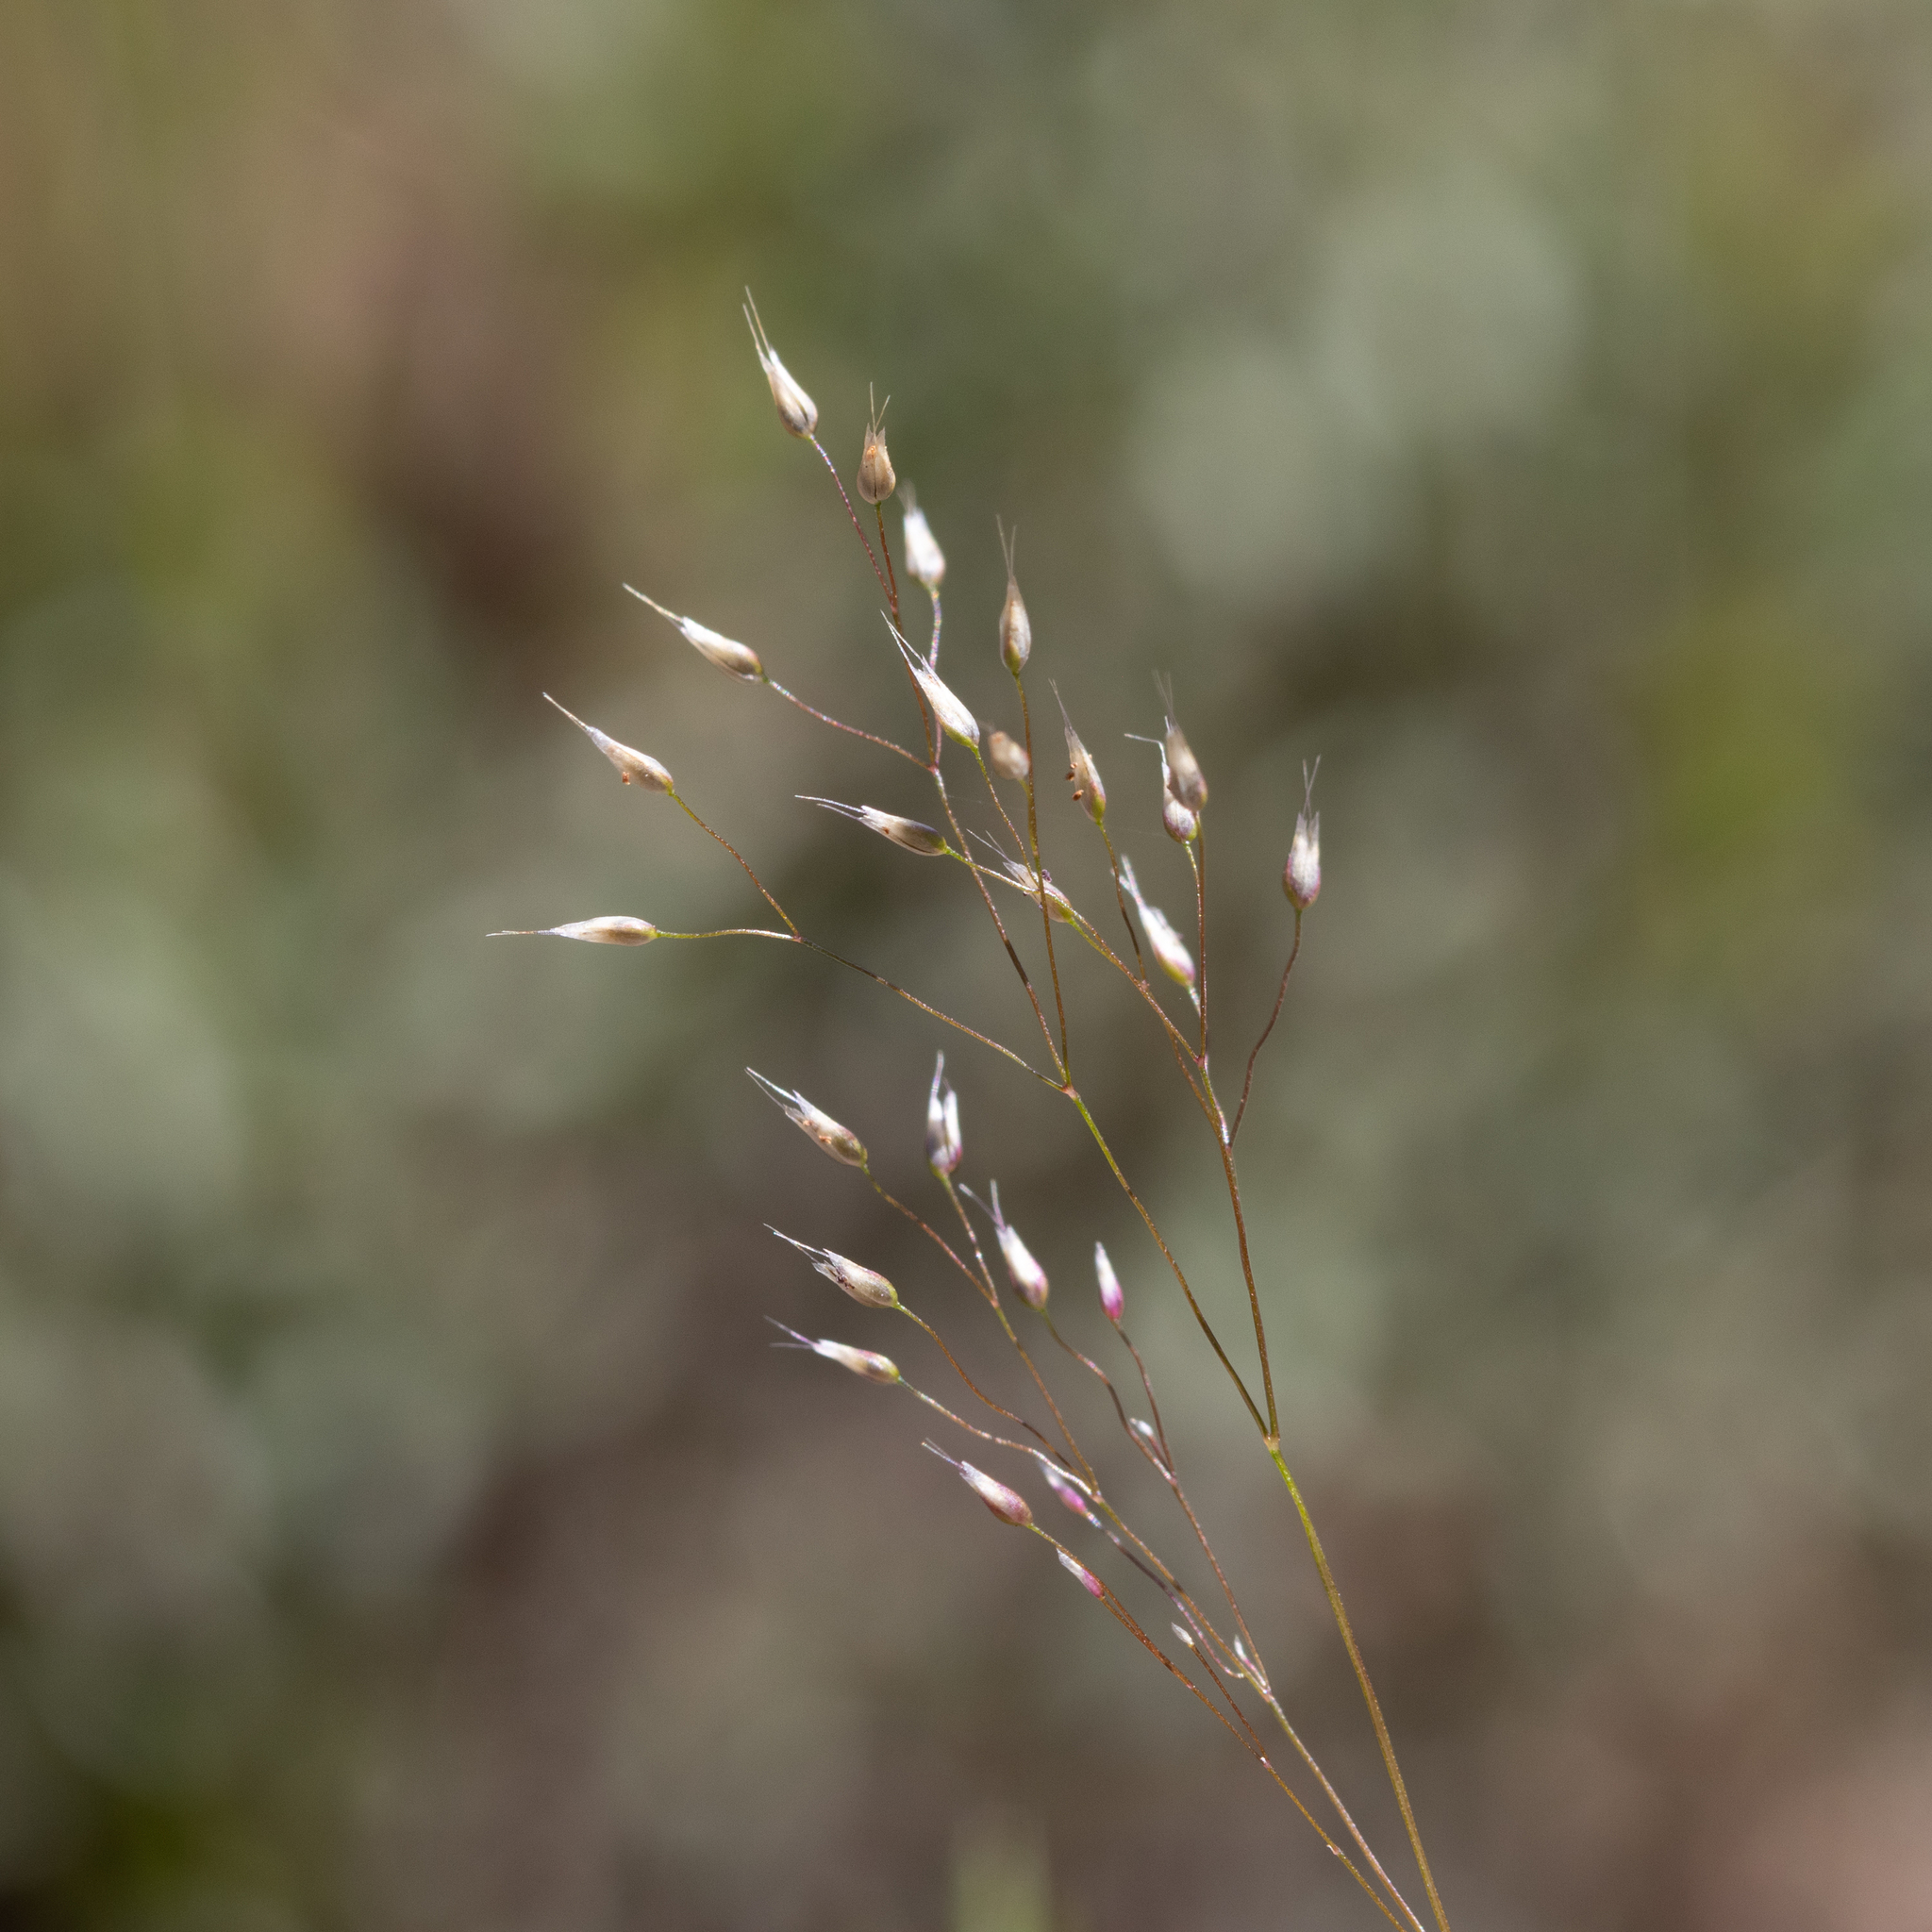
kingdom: Plantae
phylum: Tracheophyta
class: Liliopsida
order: Poales
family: Poaceae
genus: Aira
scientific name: Aira caryophyllea
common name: Silver hairgrass
